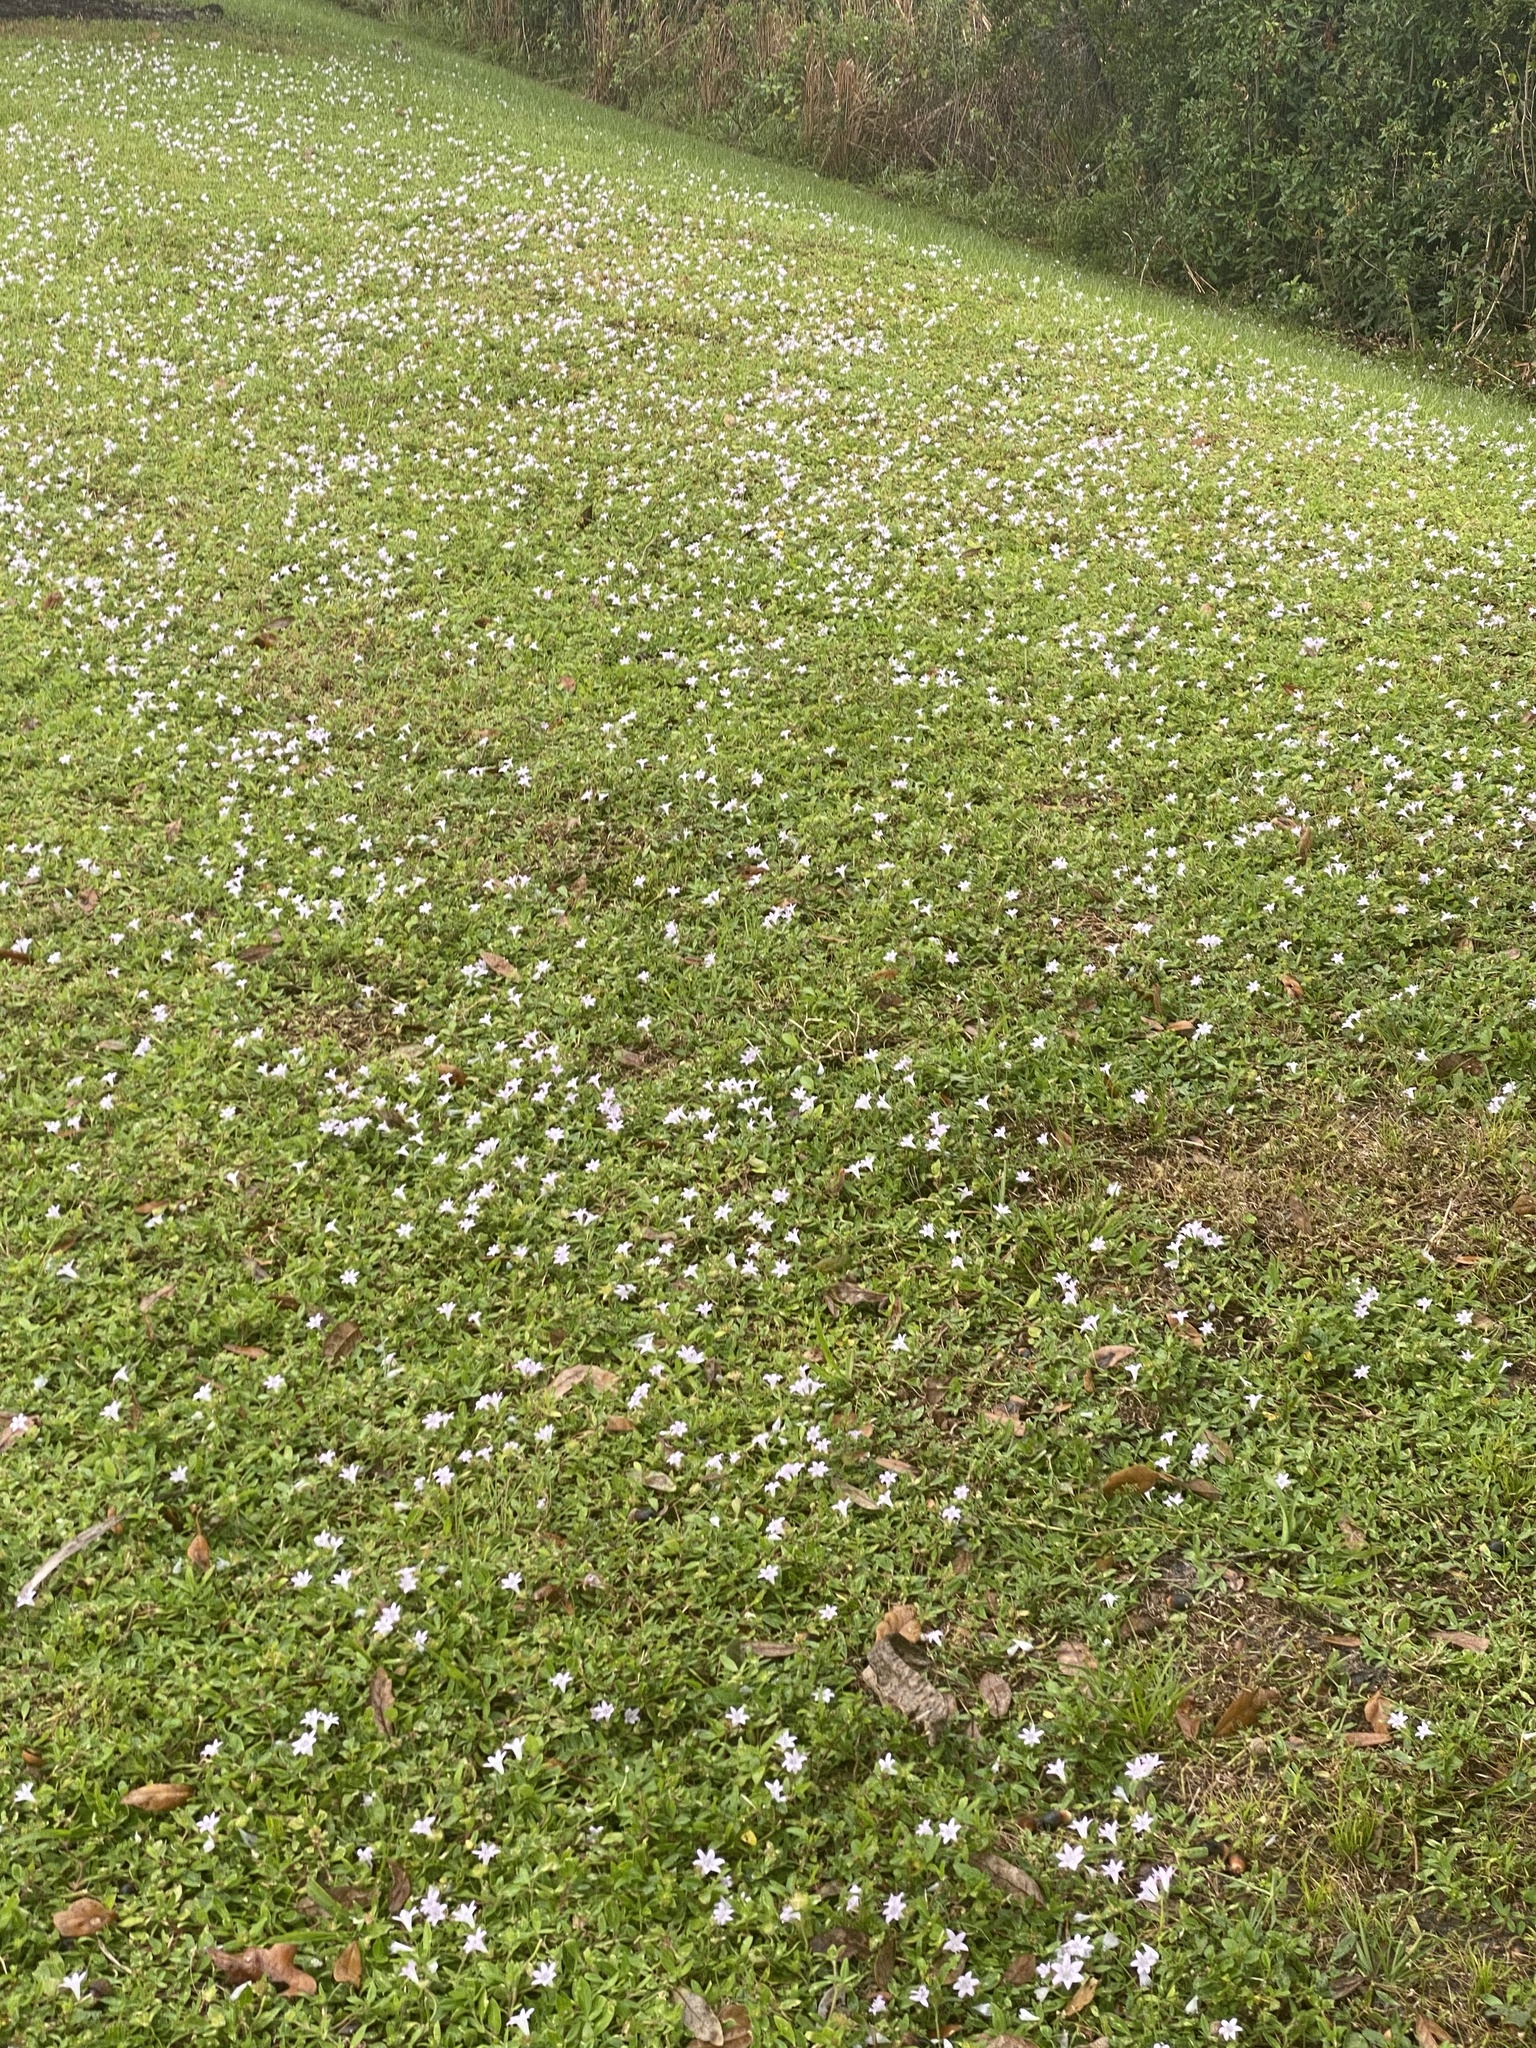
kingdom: Plantae
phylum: Tracheophyta
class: Magnoliopsida
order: Gentianales
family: Rubiaceae
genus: Richardia
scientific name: Richardia grandiflora
